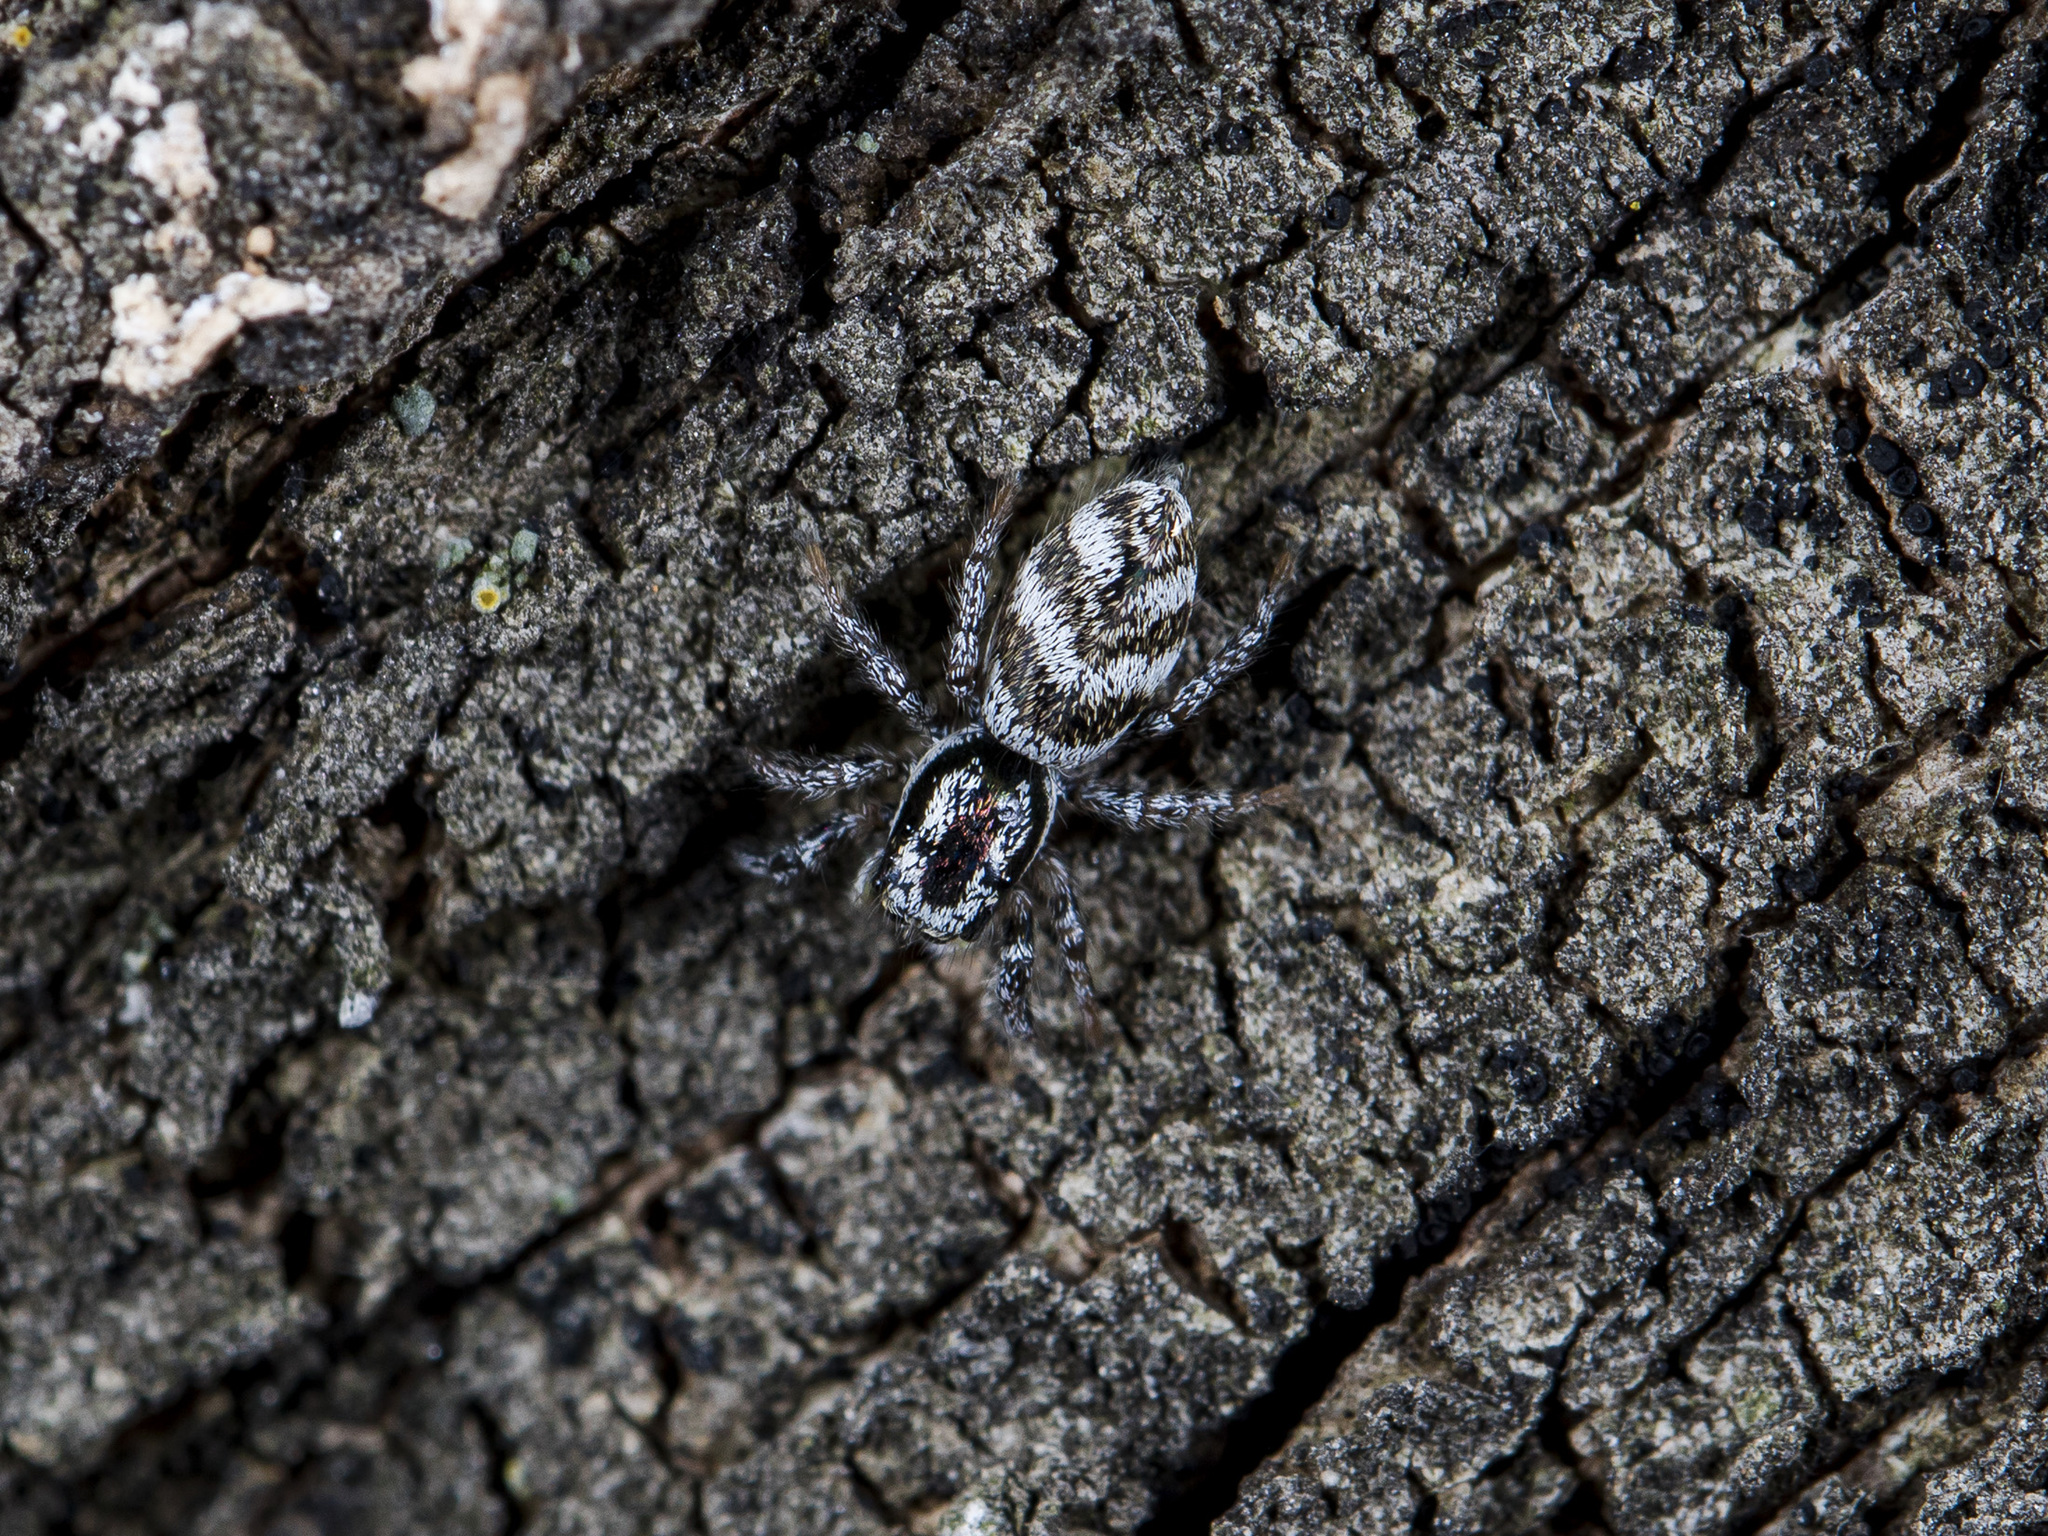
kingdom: Animalia
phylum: Arthropoda
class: Arachnida
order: Araneae
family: Salticidae
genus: Salticus
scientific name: Salticus tricinctus
